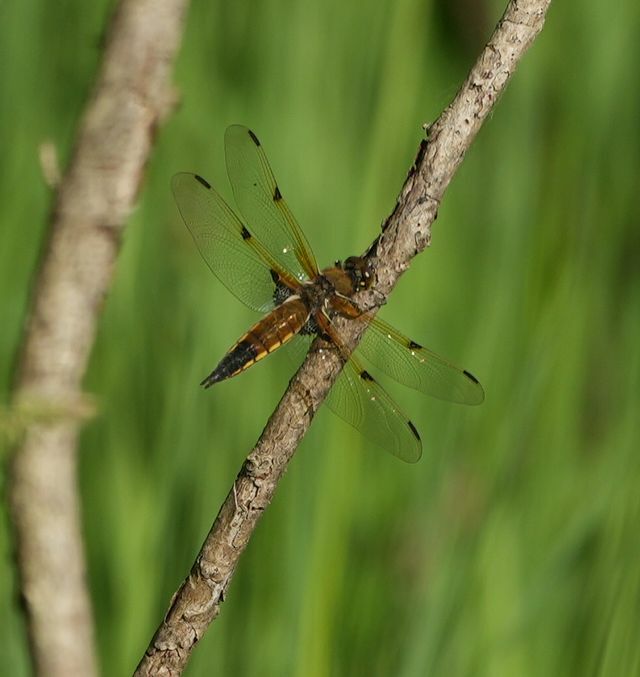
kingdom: Animalia
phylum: Arthropoda
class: Insecta
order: Odonata
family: Libellulidae
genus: Libellula
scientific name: Libellula quadrimaculata
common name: Four-spotted chaser
